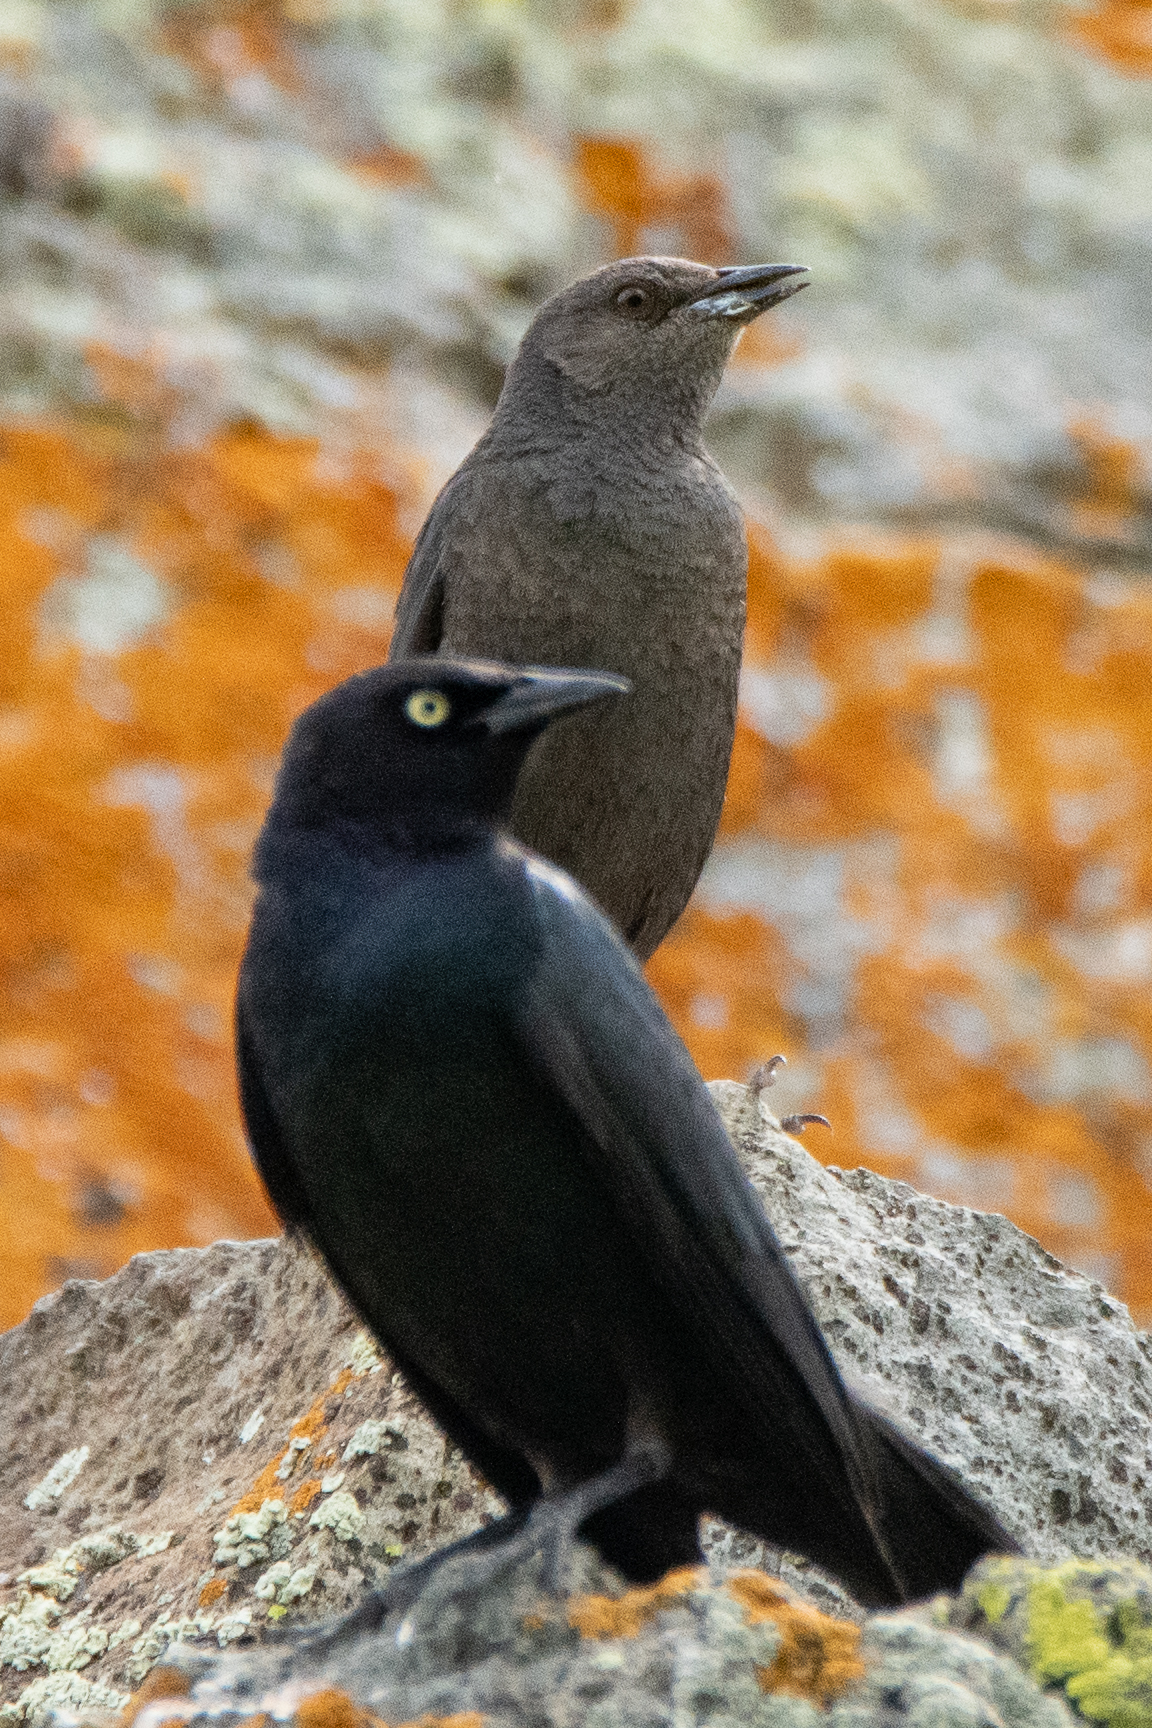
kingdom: Animalia
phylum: Chordata
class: Aves
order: Passeriformes
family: Icteridae
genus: Euphagus
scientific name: Euphagus cyanocephalus
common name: Brewer's blackbird
